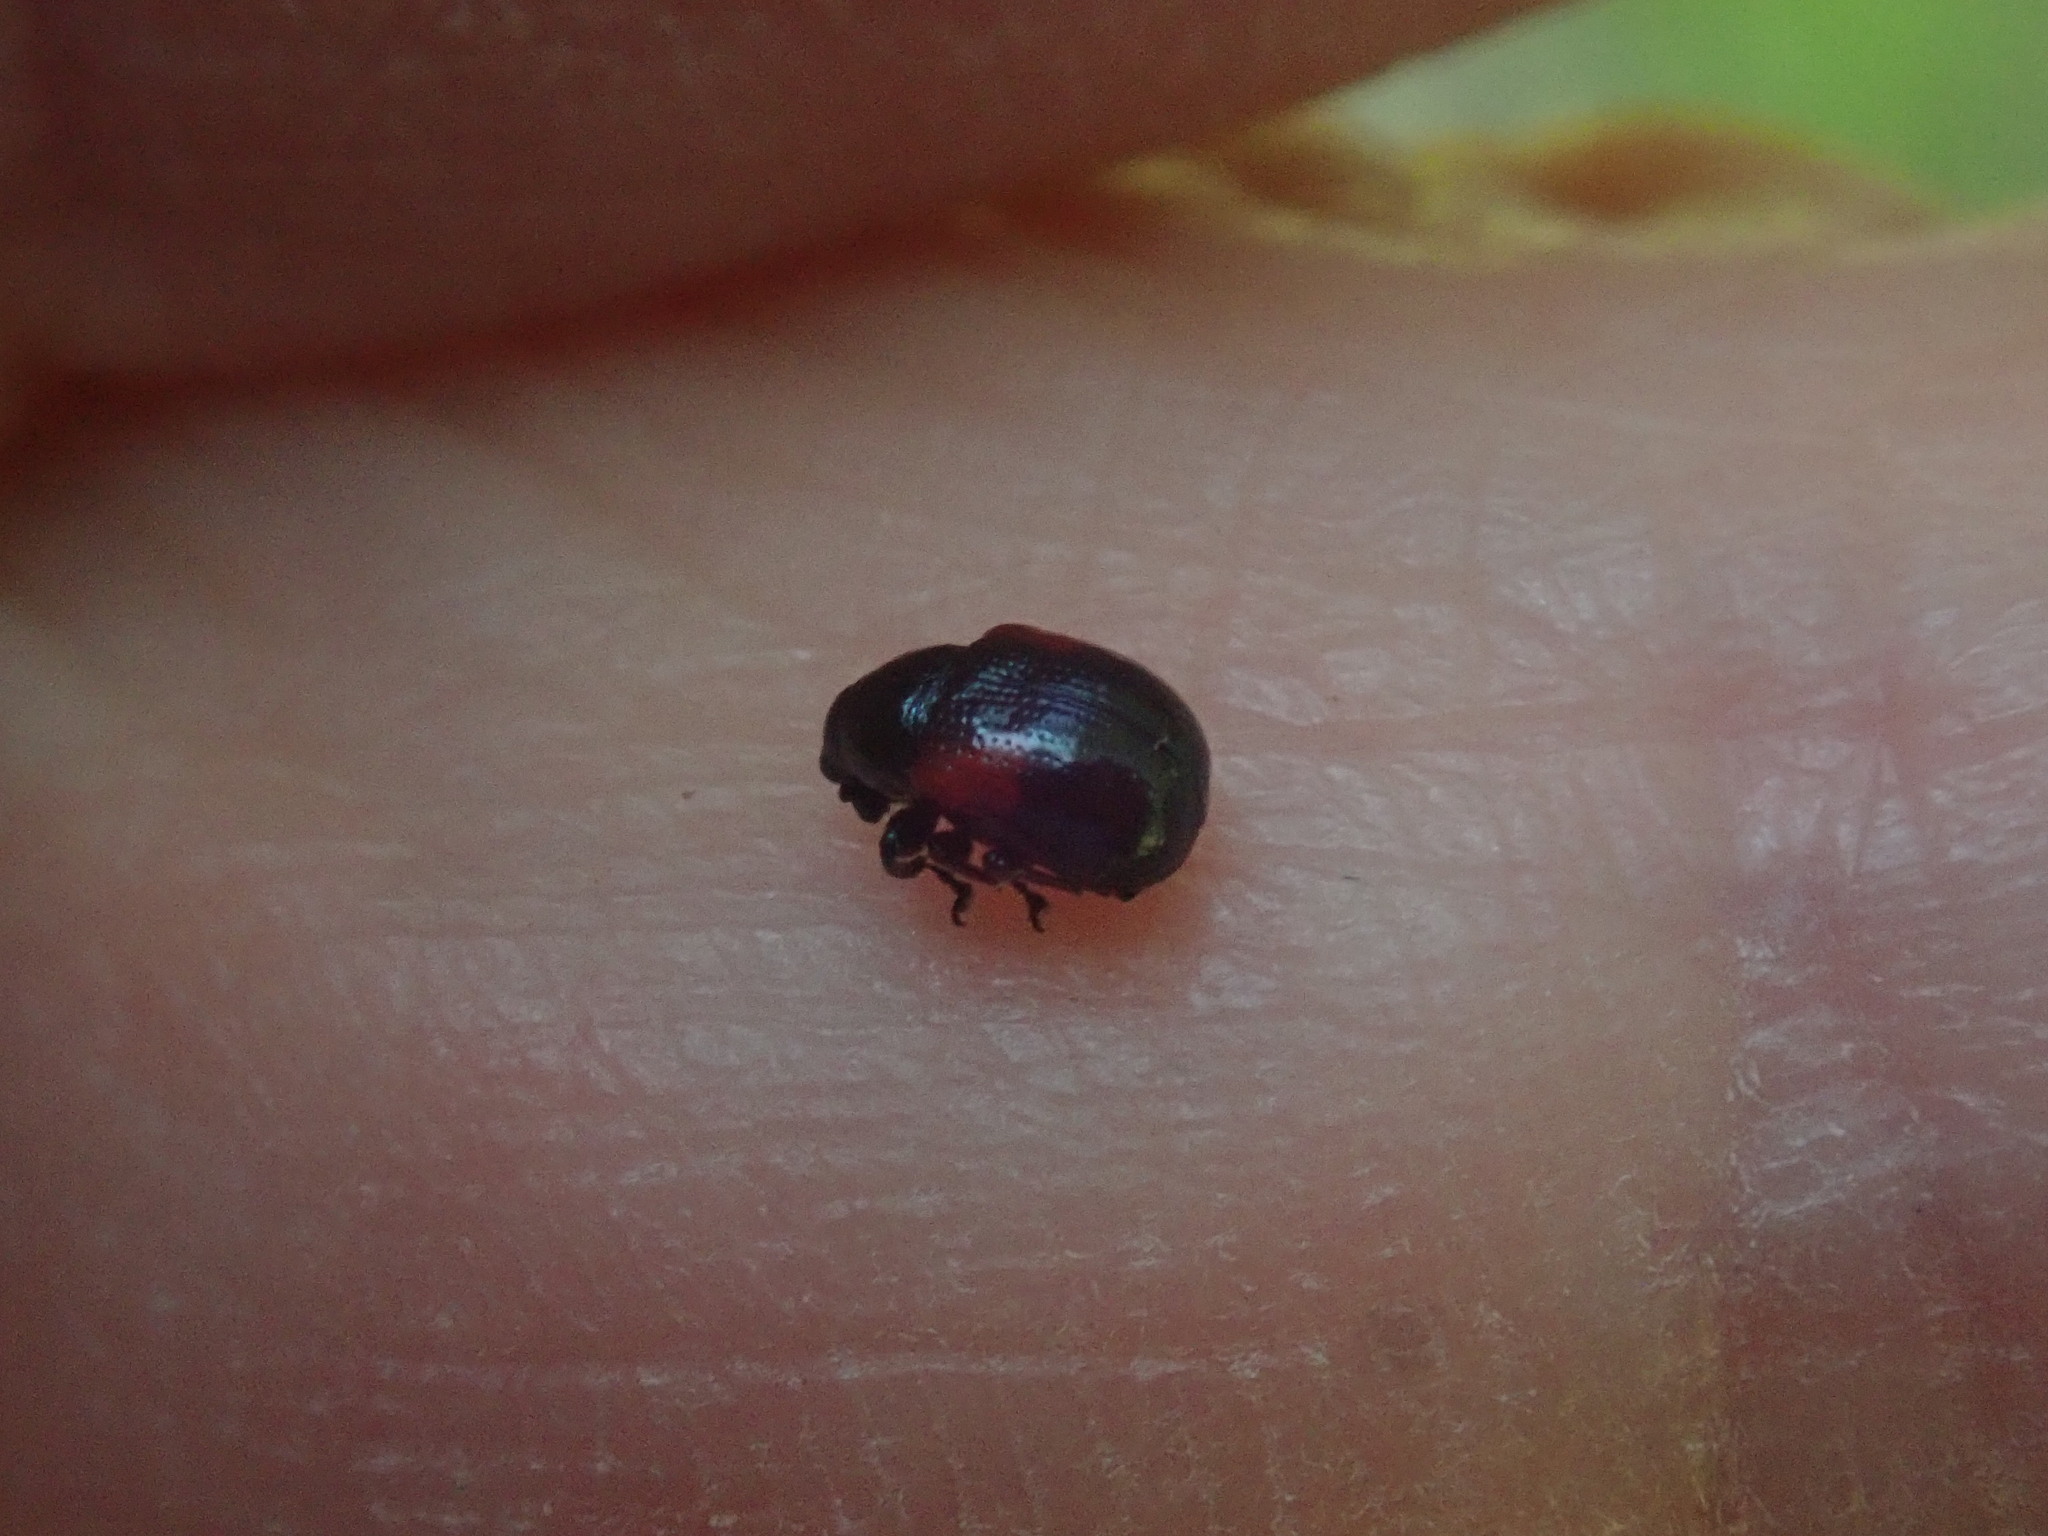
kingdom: Animalia
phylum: Arthropoda
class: Insecta
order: Coleoptera
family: Attelabidae
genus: Attelabus
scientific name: Attelabus bipustulatus
